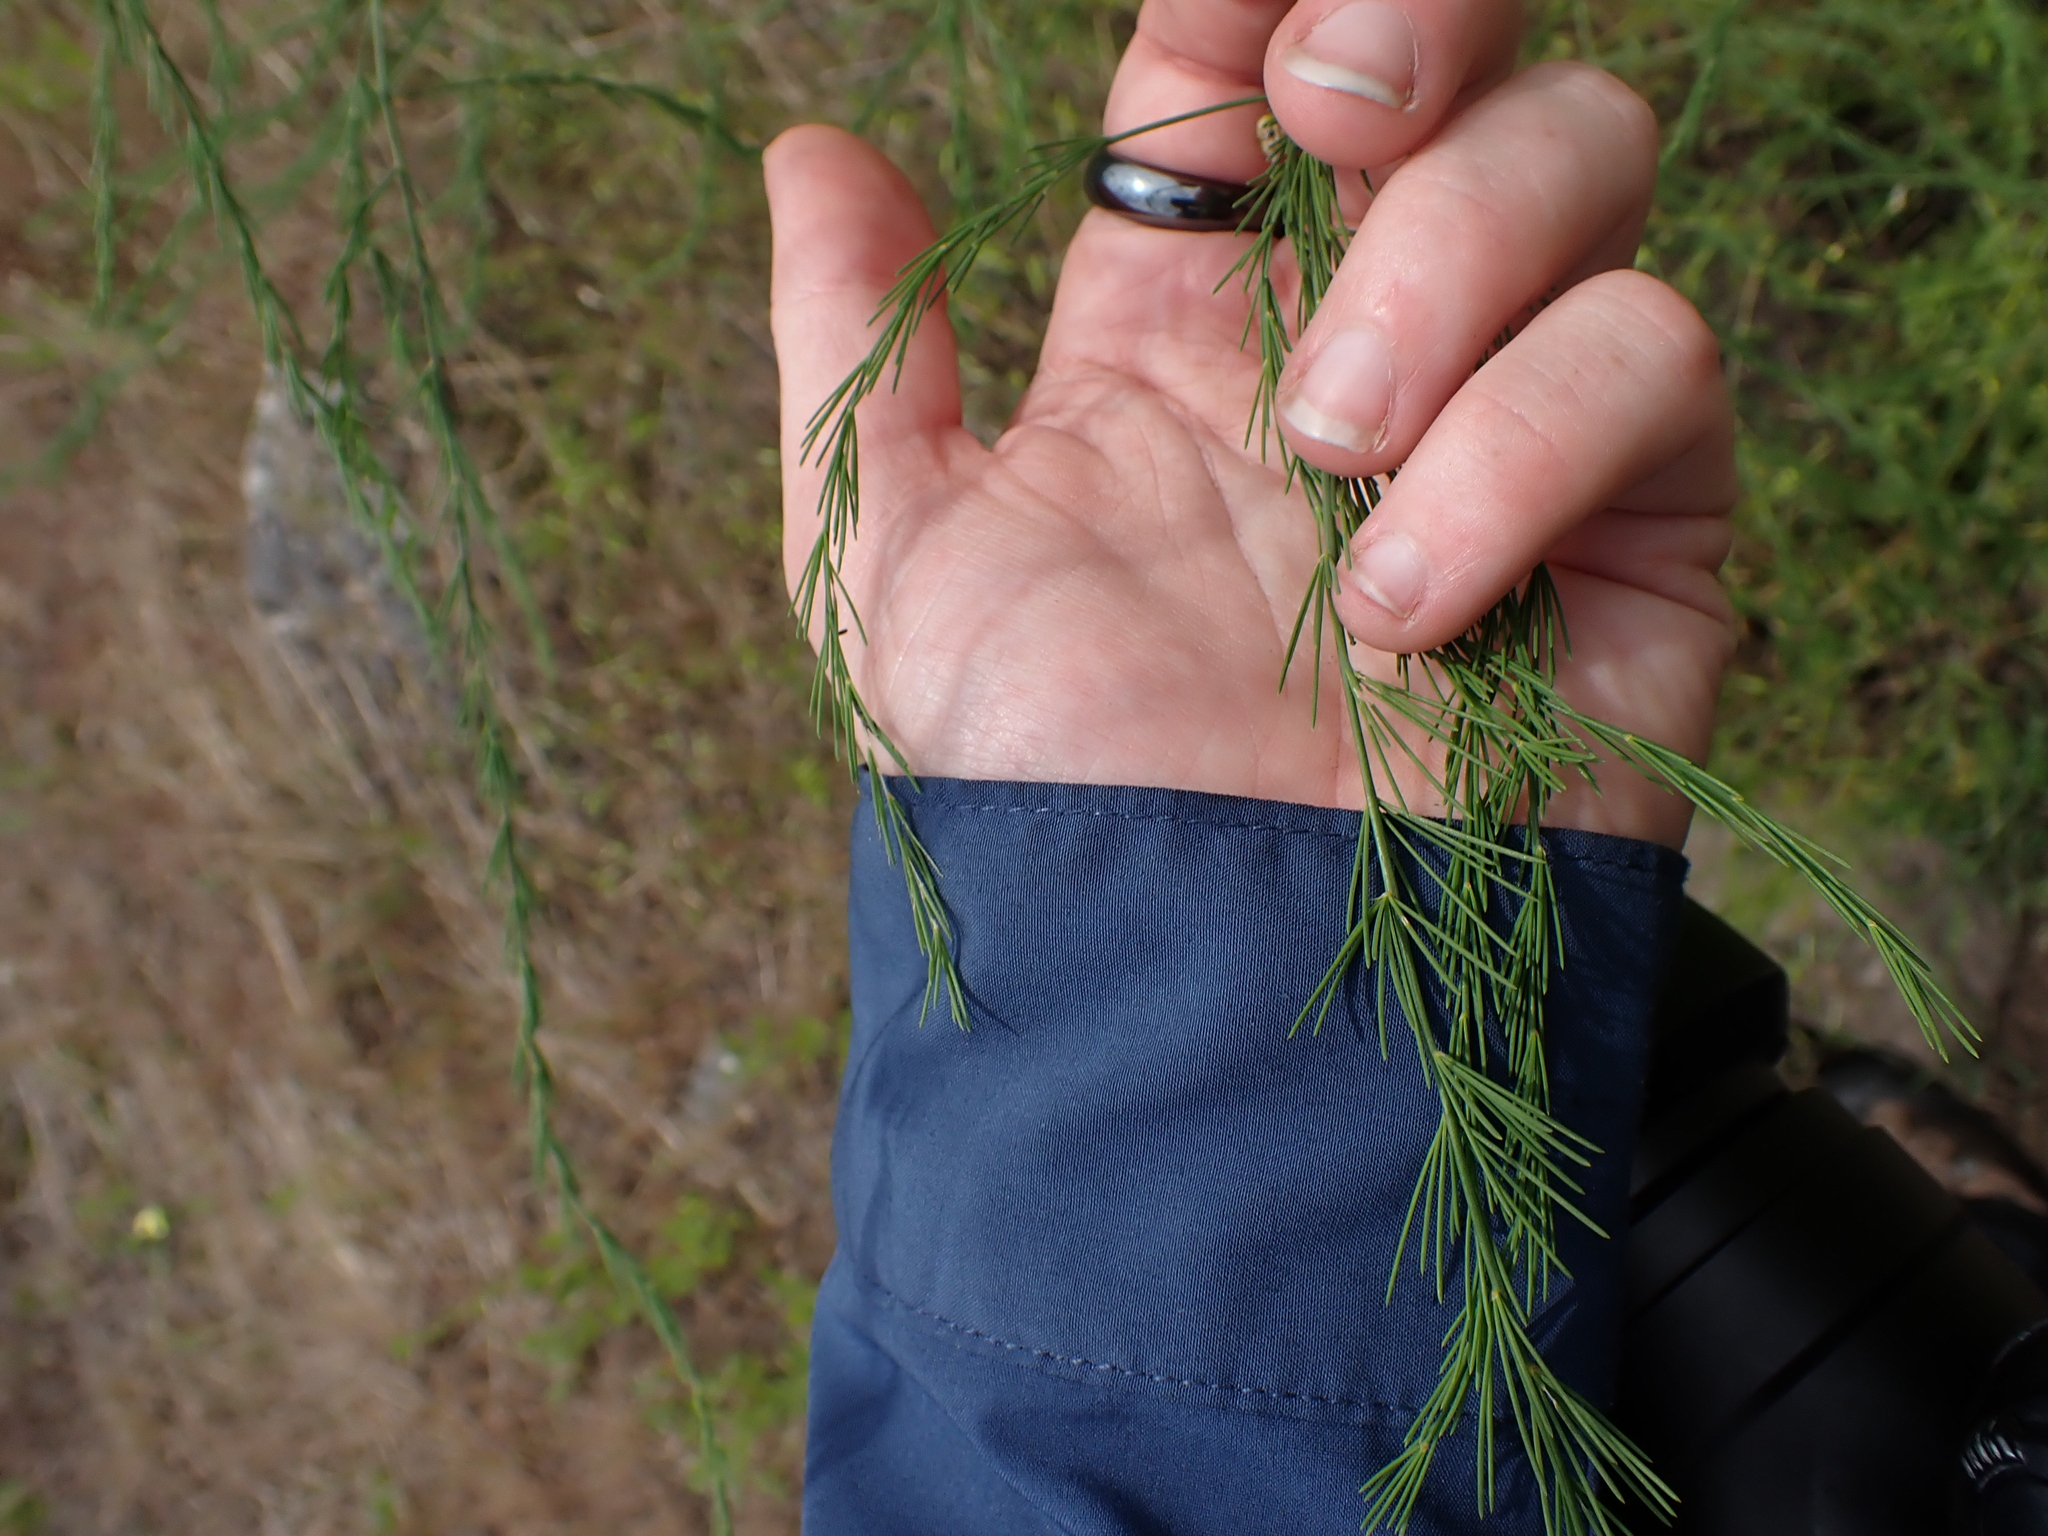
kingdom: Plantae
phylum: Tracheophyta
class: Liliopsida
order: Asparagales
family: Asparagaceae
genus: Asparagus
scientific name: Asparagus officinalis
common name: Garden asparagus
